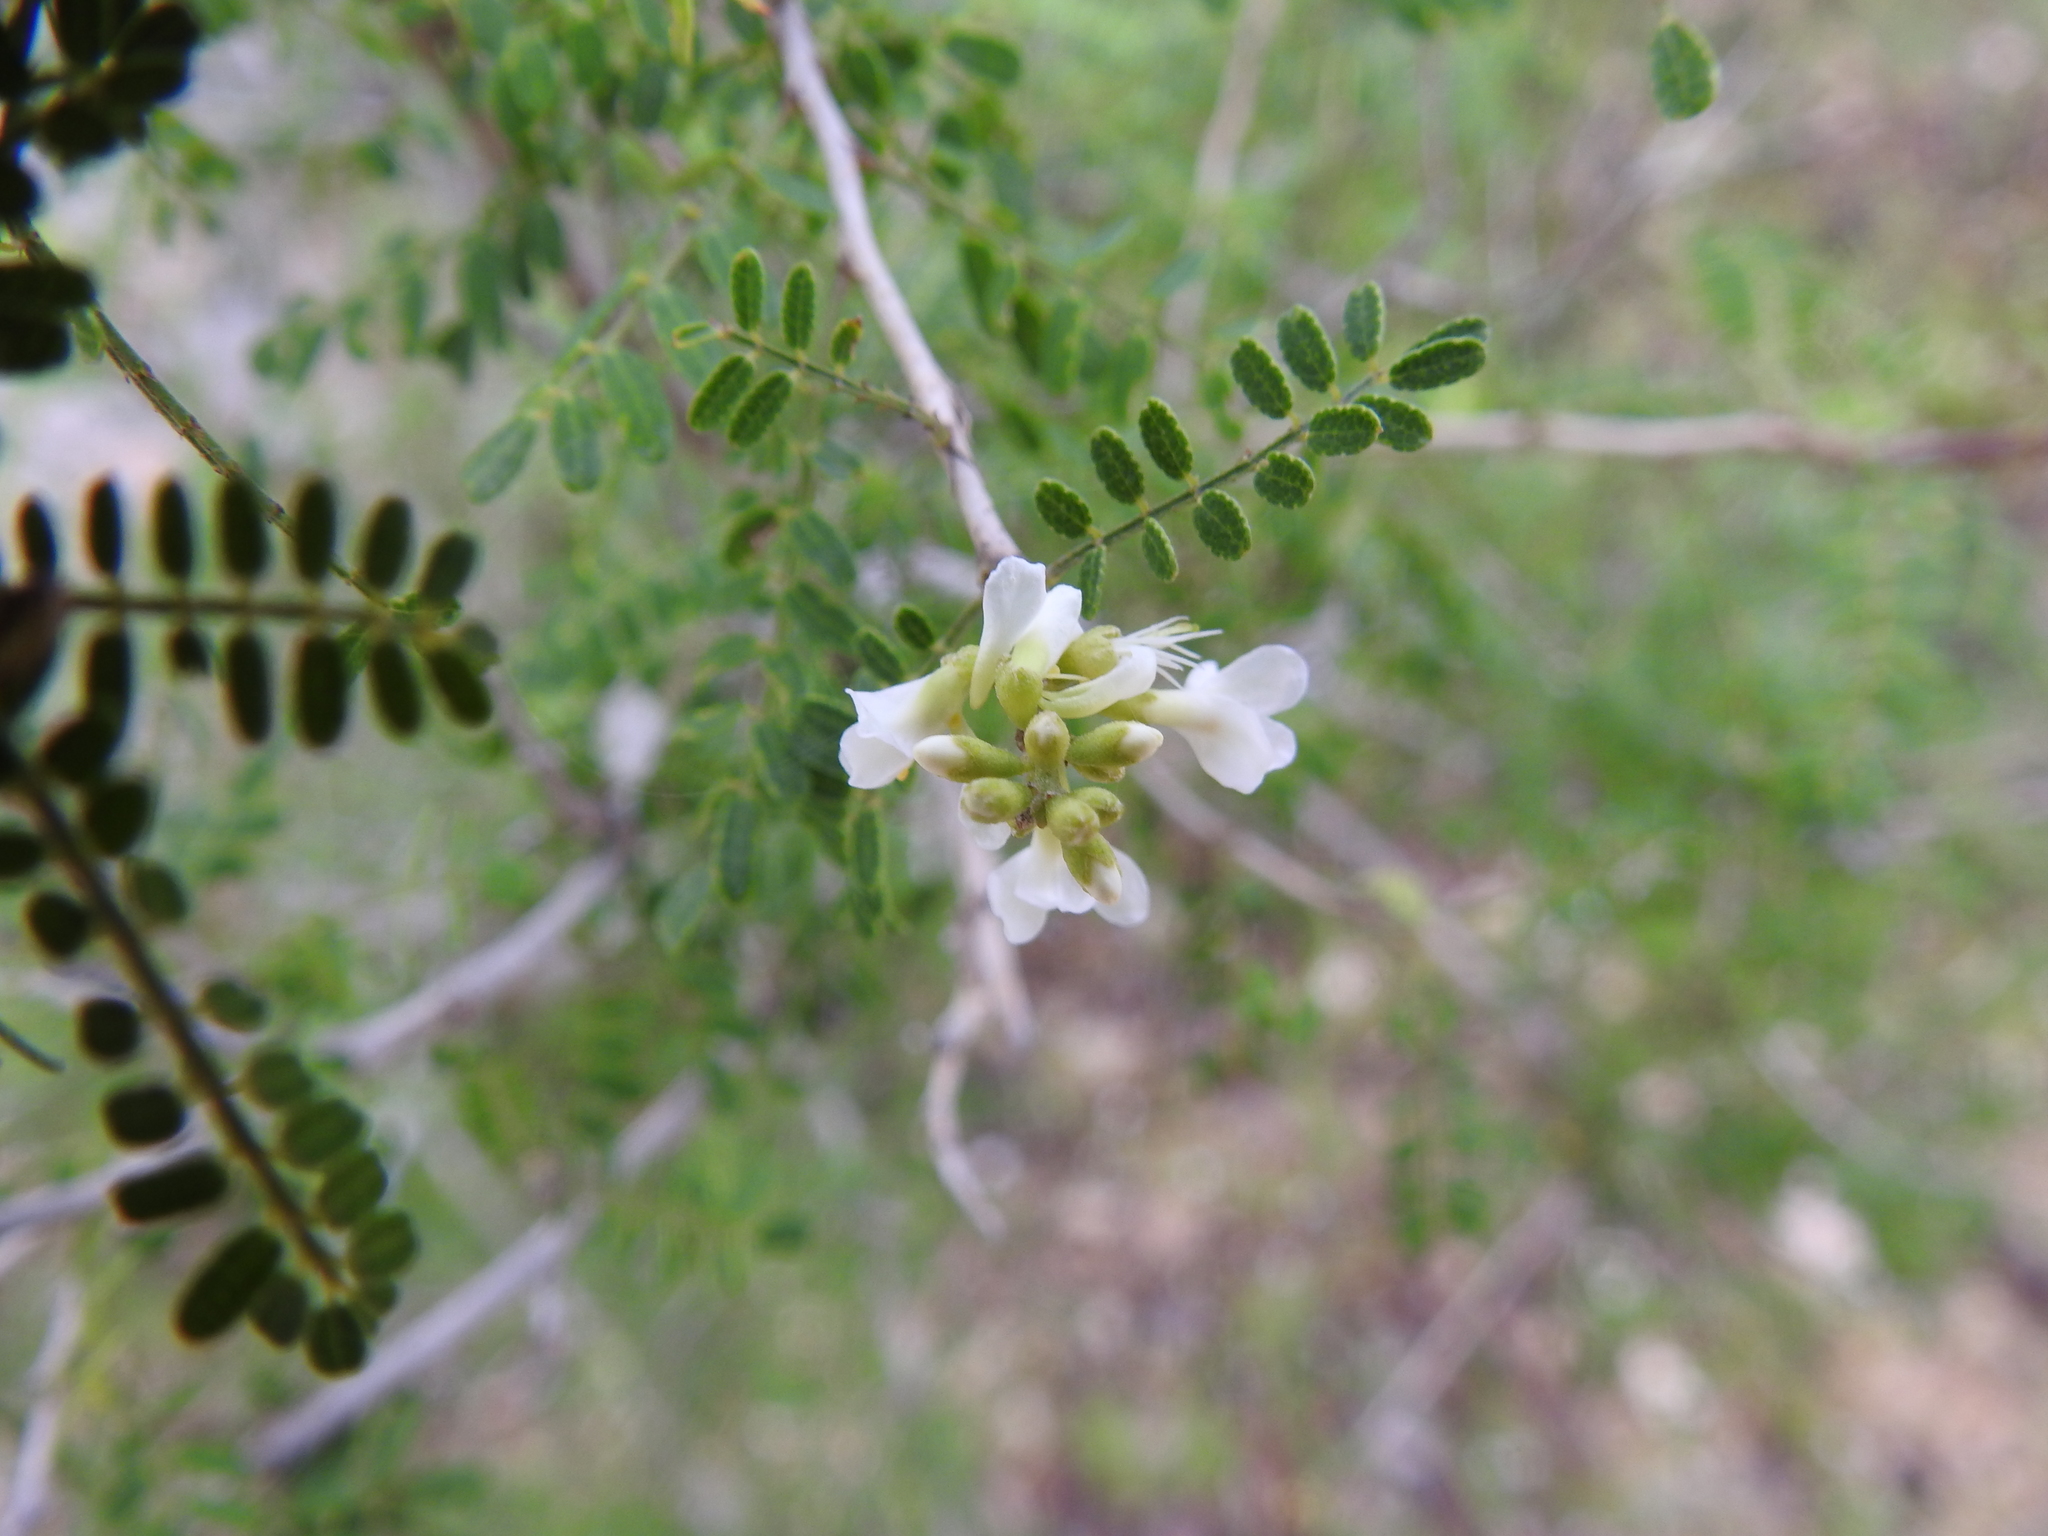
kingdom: Plantae
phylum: Tracheophyta
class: Magnoliopsida
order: Fabales
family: Fabaceae
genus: Eysenhardtia
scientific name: Eysenhardtia texana
